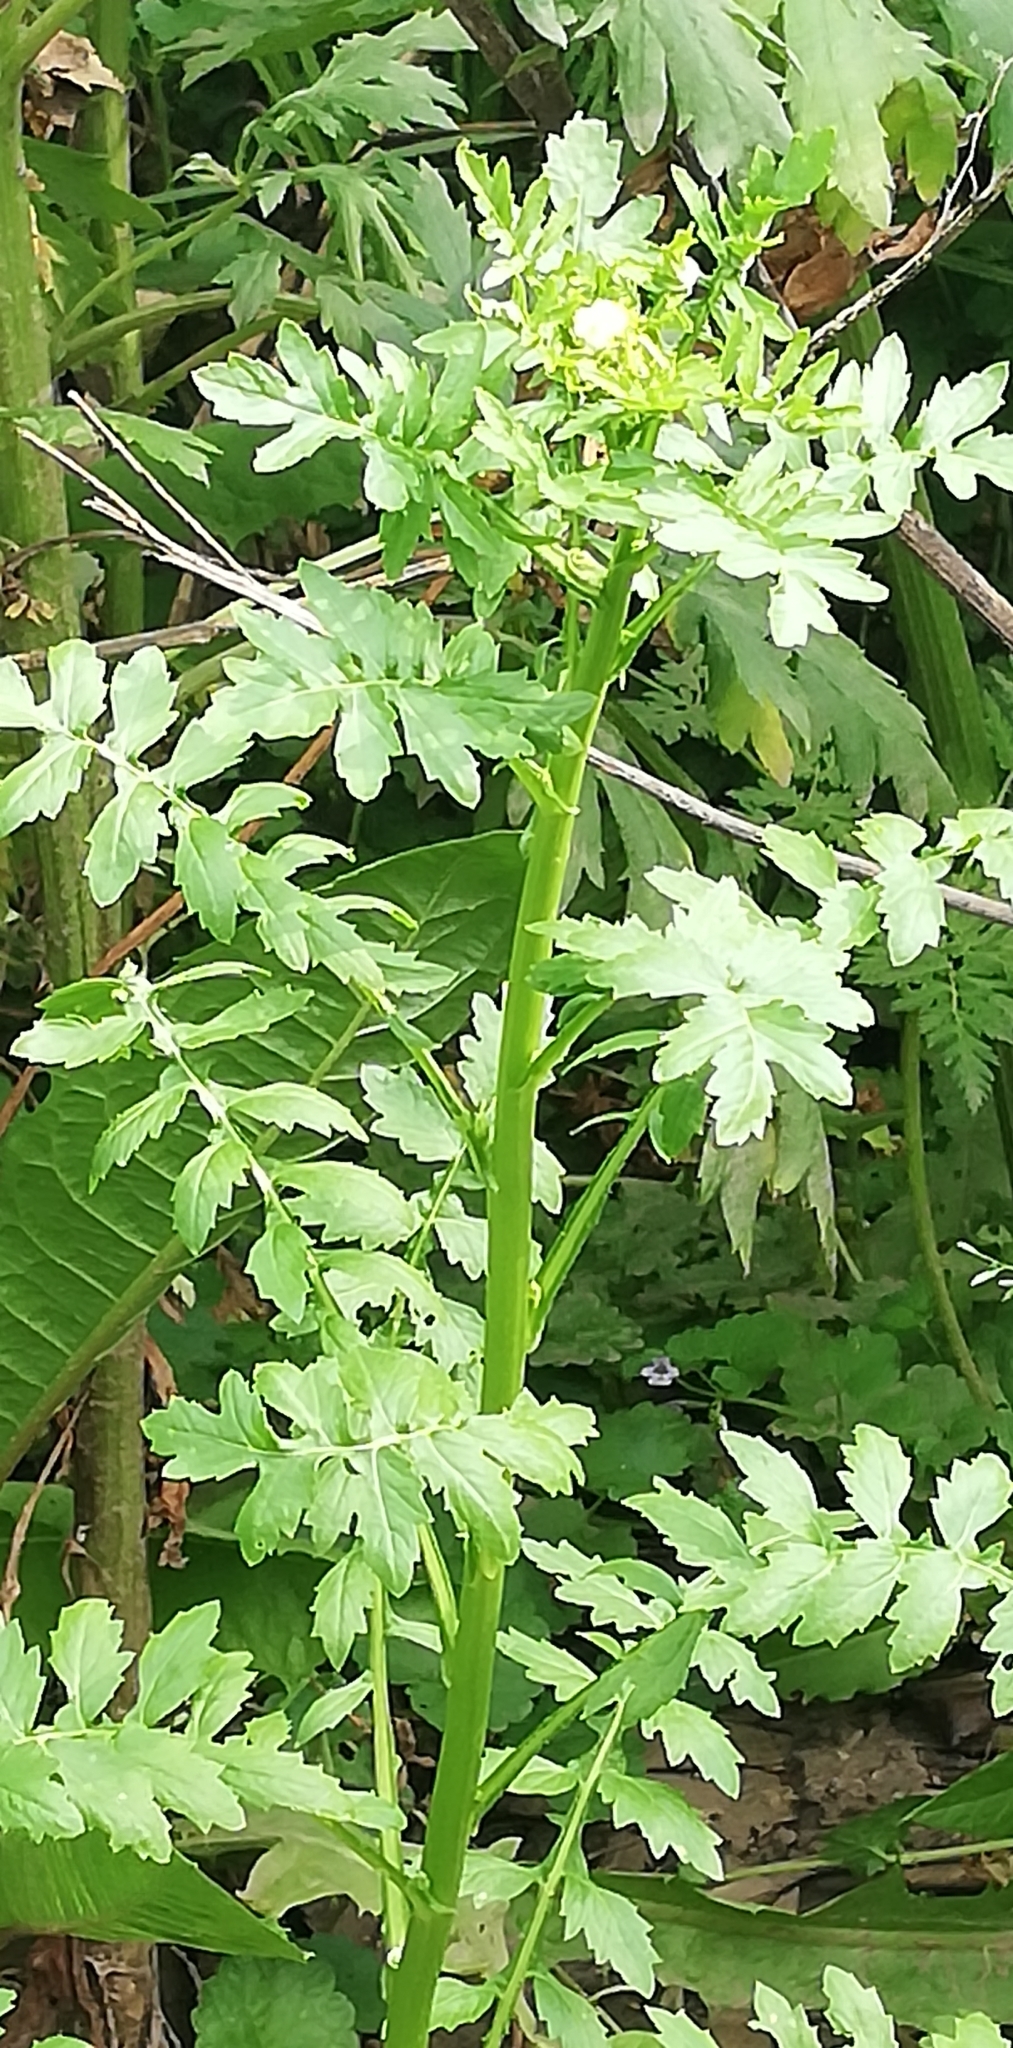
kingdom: Plantae
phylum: Tracheophyta
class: Magnoliopsida
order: Brassicales
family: Brassicaceae
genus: Rorippa
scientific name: Rorippa palustris
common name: Marsh yellow-cress
